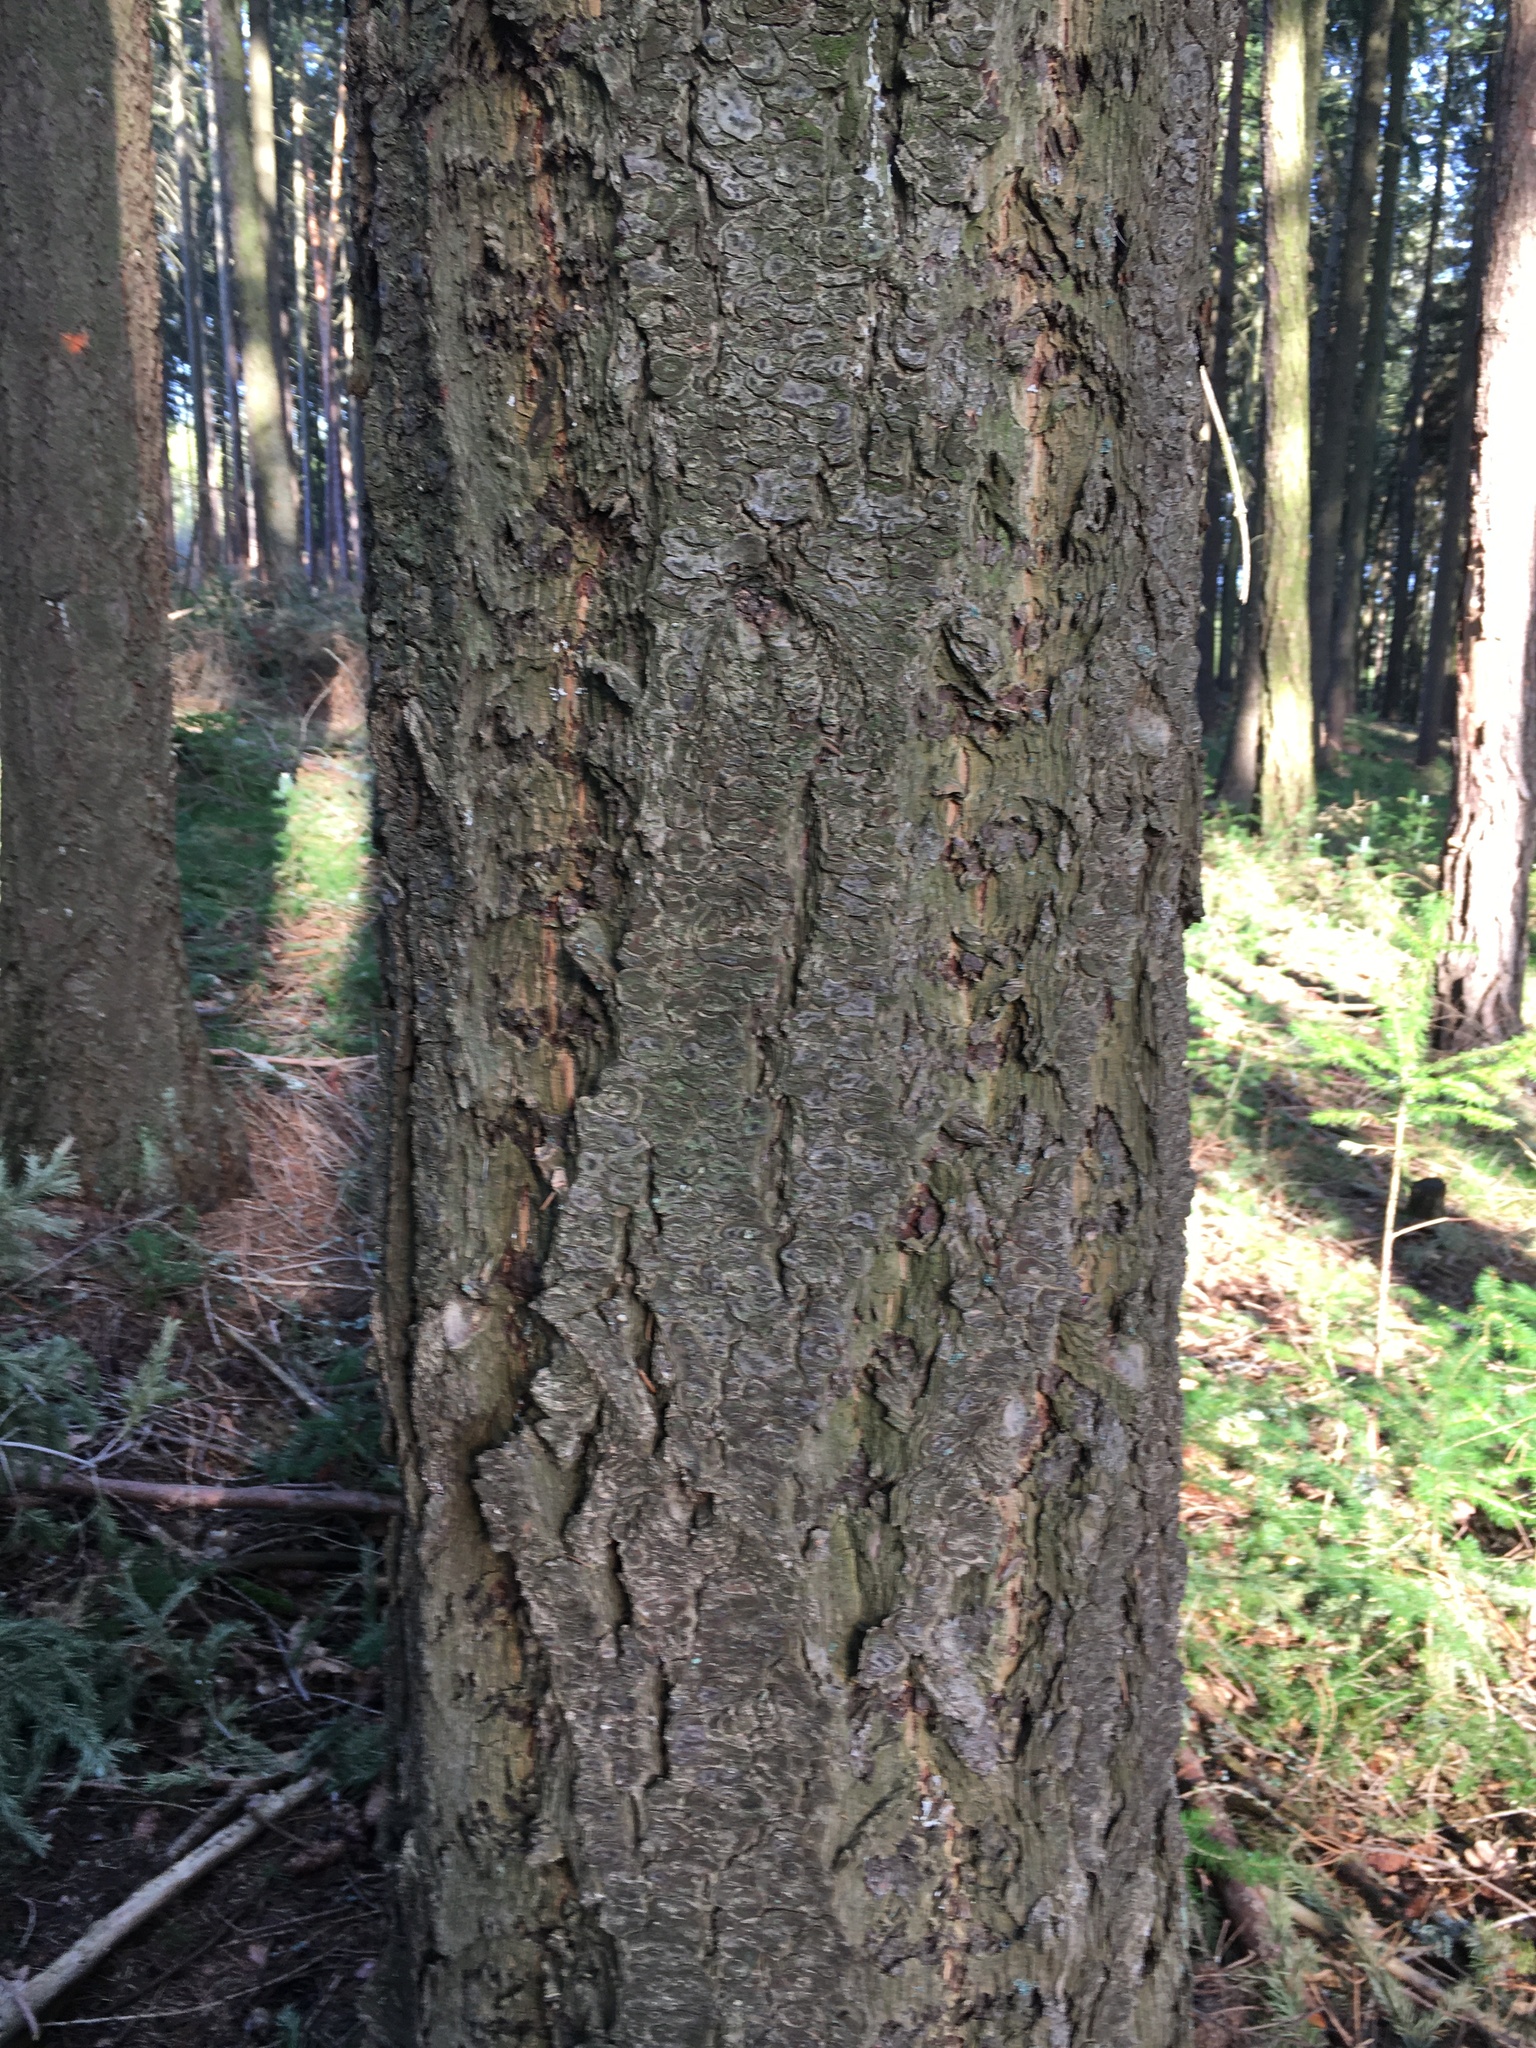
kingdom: Plantae
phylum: Tracheophyta
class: Pinopsida
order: Pinales
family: Pinaceae
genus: Pseudotsuga
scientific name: Pseudotsuga menziesii
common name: Douglas fir
